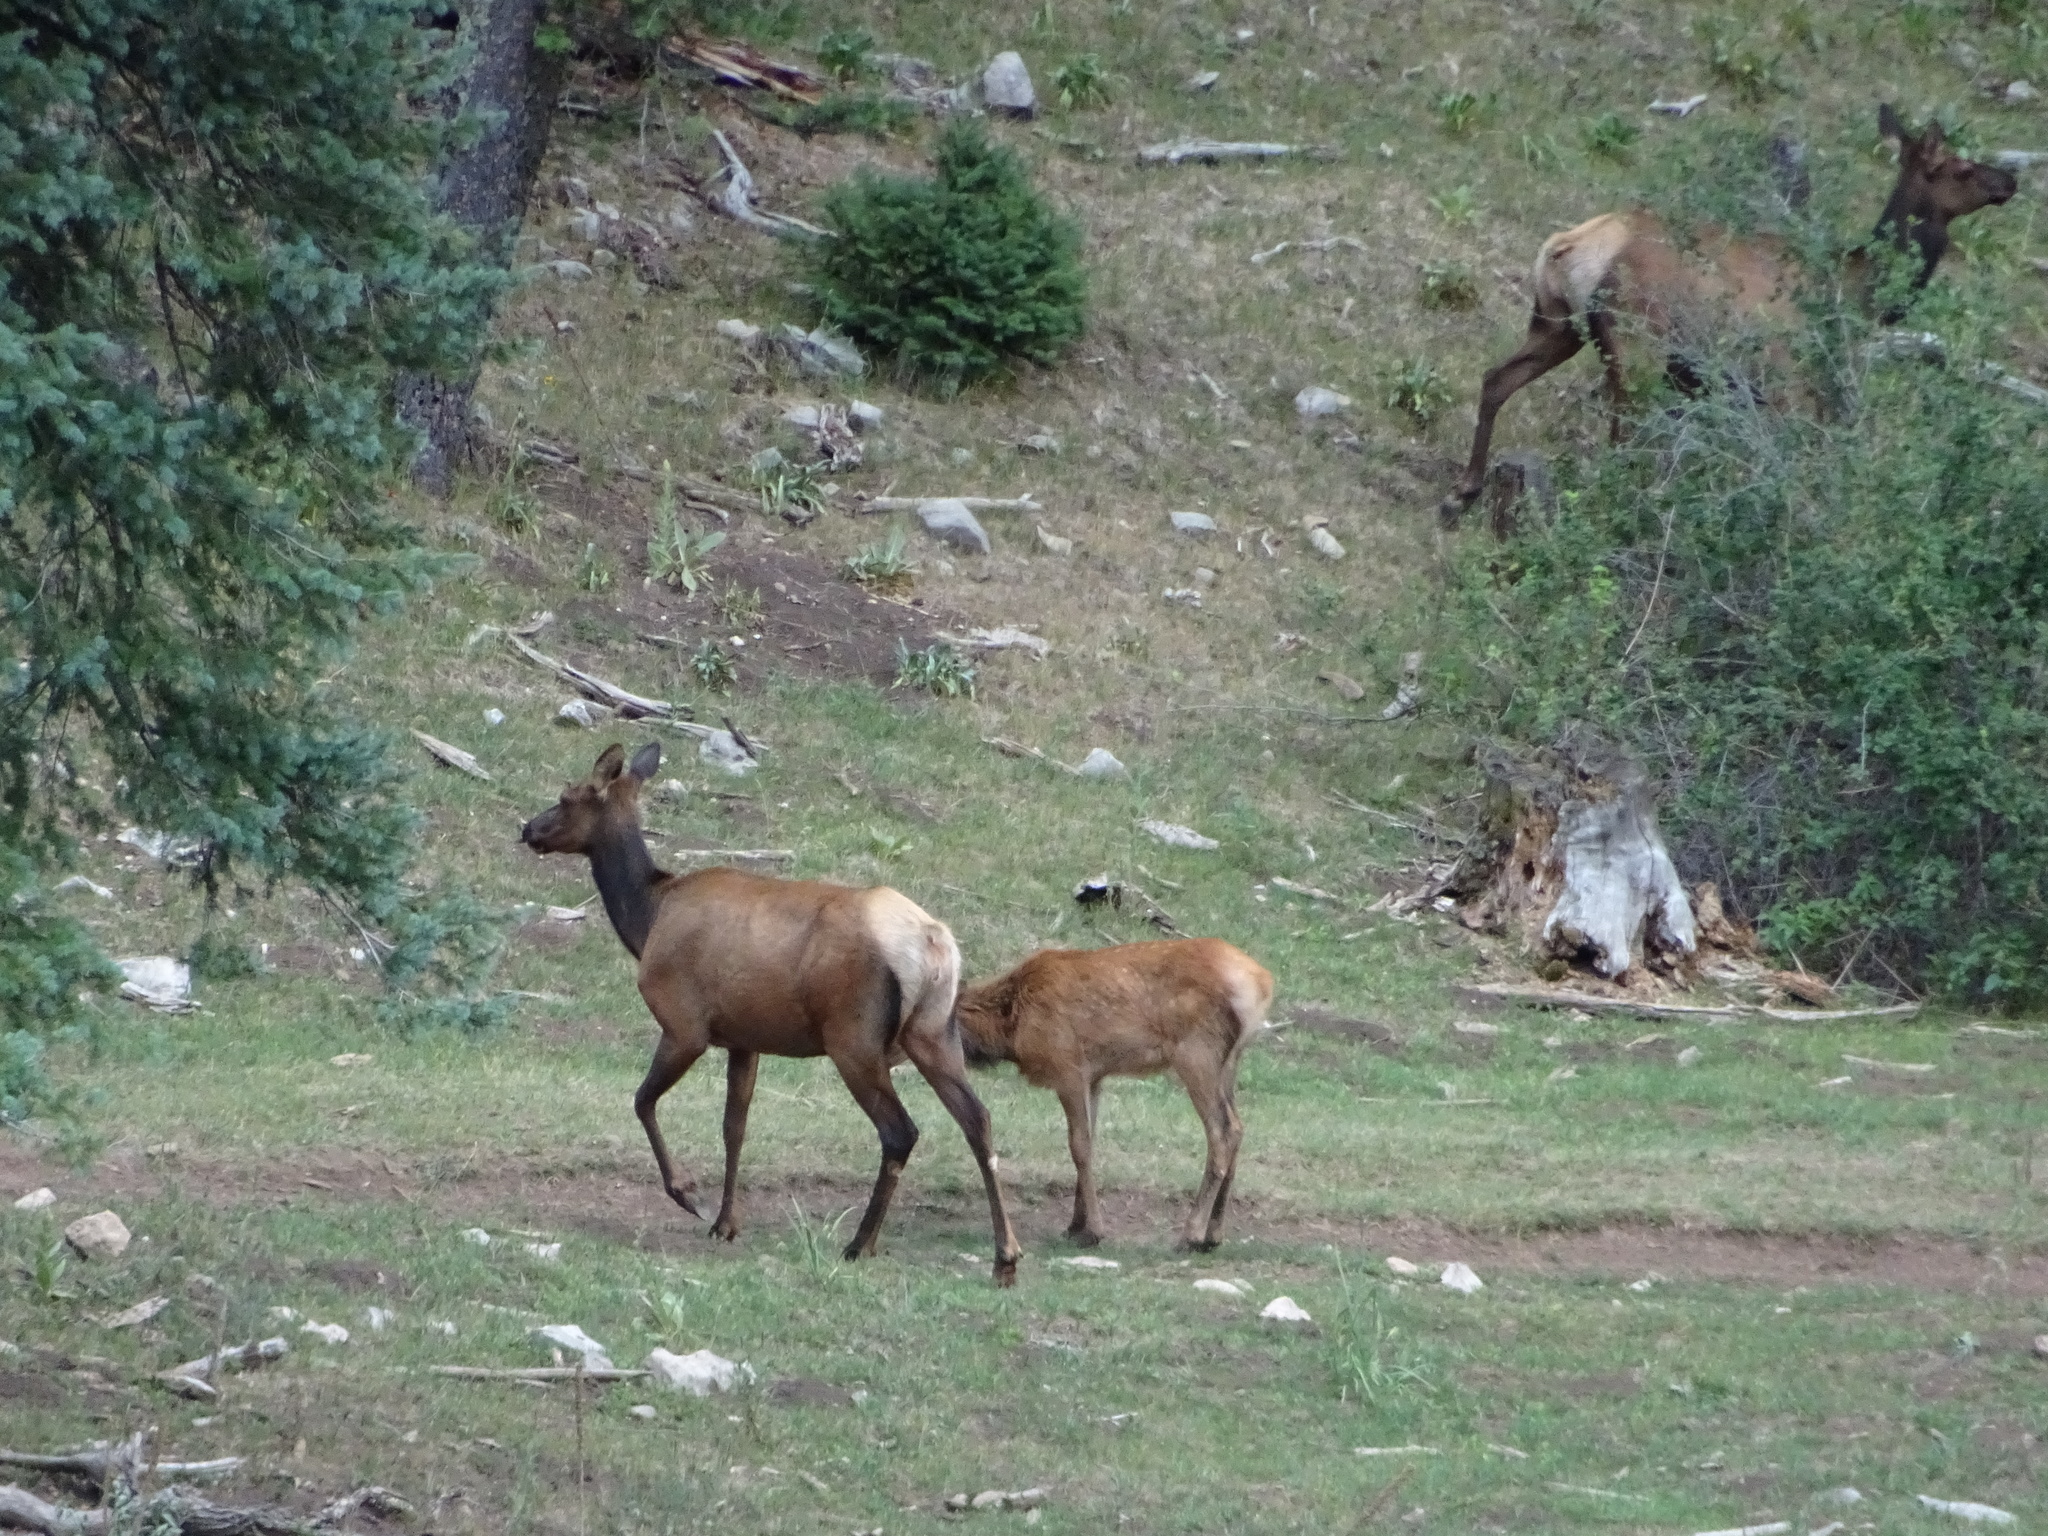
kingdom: Animalia
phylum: Chordata
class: Mammalia
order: Artiodactyla
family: Cervidae
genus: Cervus
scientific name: Cervus elaphus
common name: Red deer
